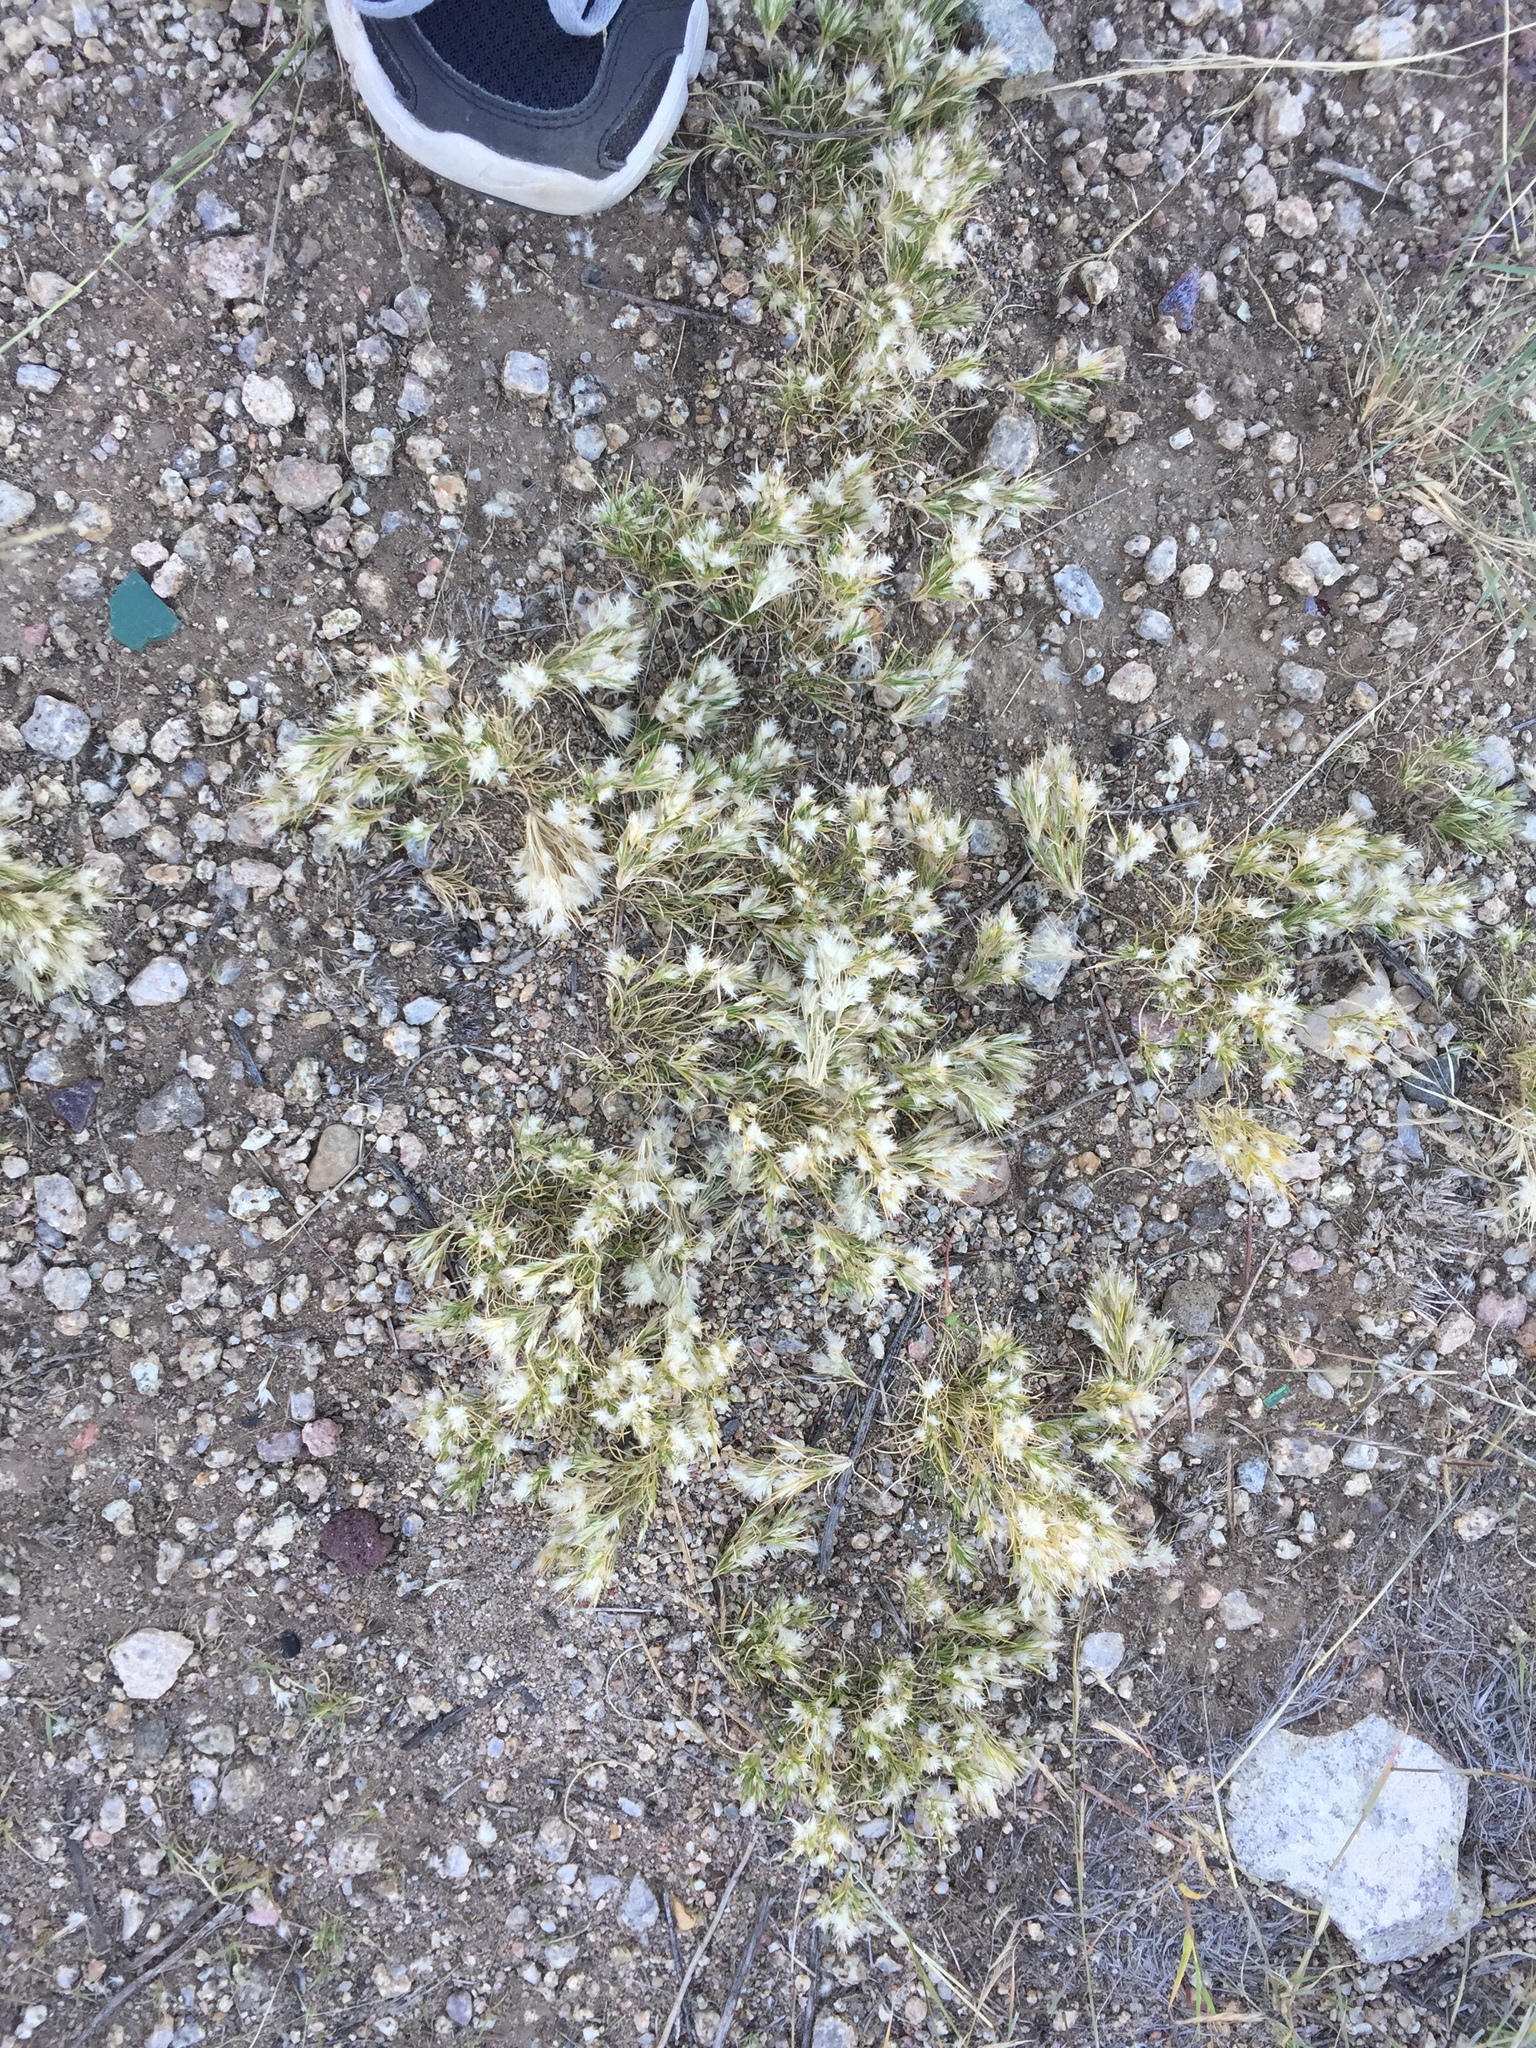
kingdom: Plantae
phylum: Tracheophyta
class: Liliopsida
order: Poales
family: Poaceae
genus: Dasyochloa
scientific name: Dasyochloa pulchella
